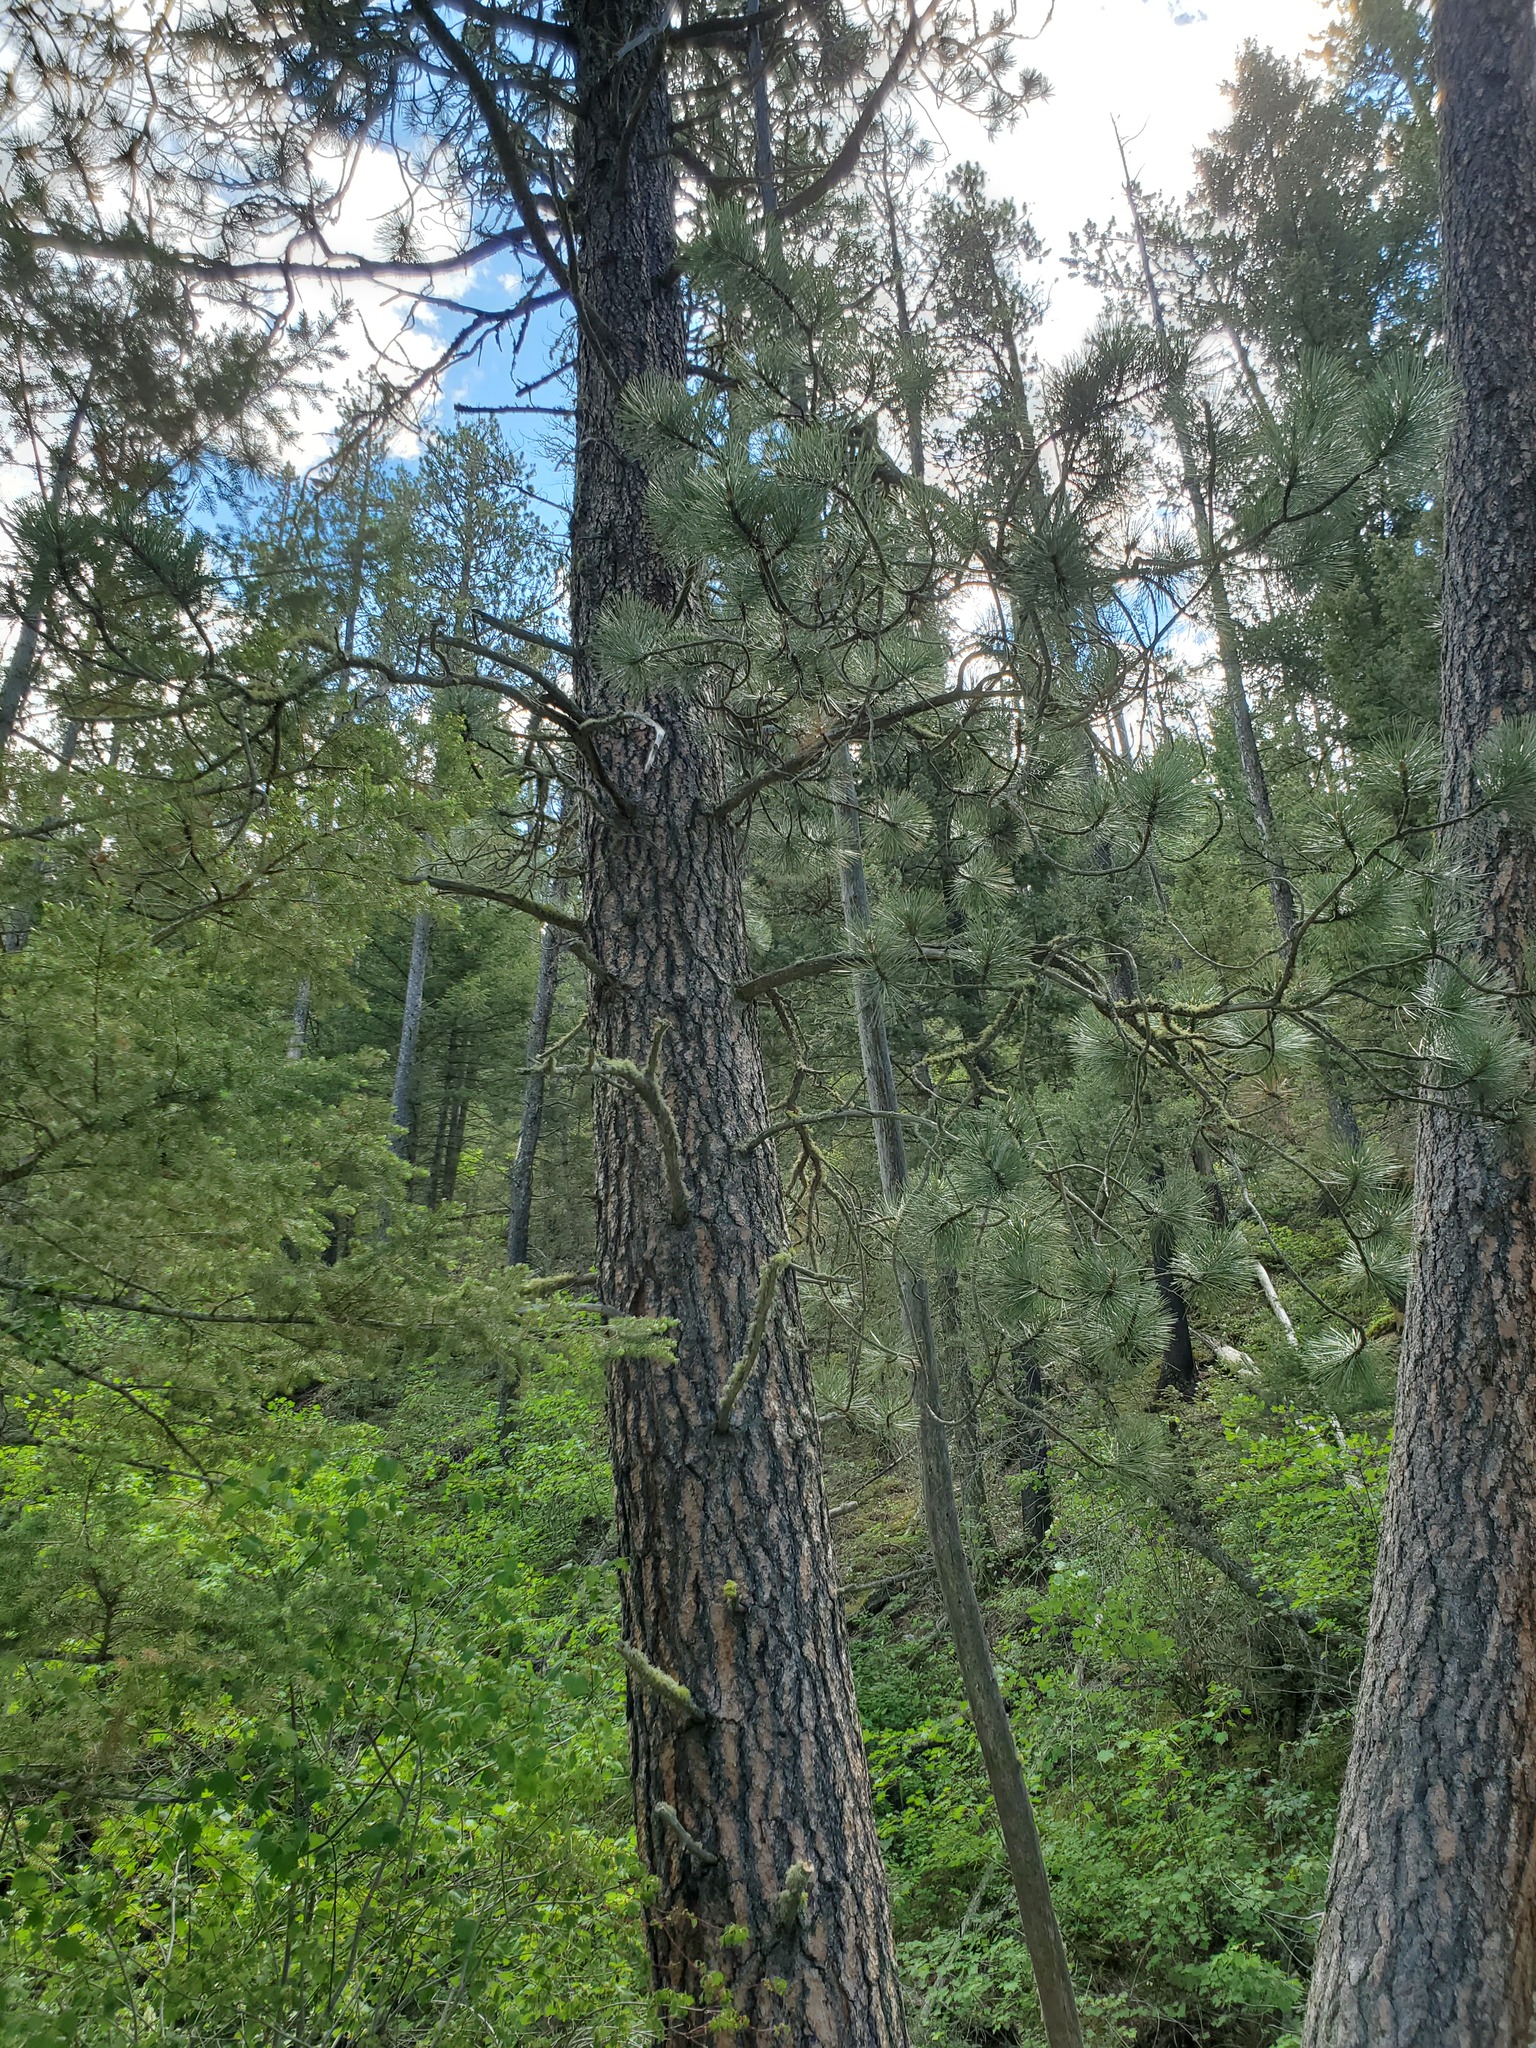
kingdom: Plantae
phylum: Tracheophyta
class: Pinopsida
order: Pinales
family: Pinaceae
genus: Pinus
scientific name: Pinus ponderosa
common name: Western yellow-pine
